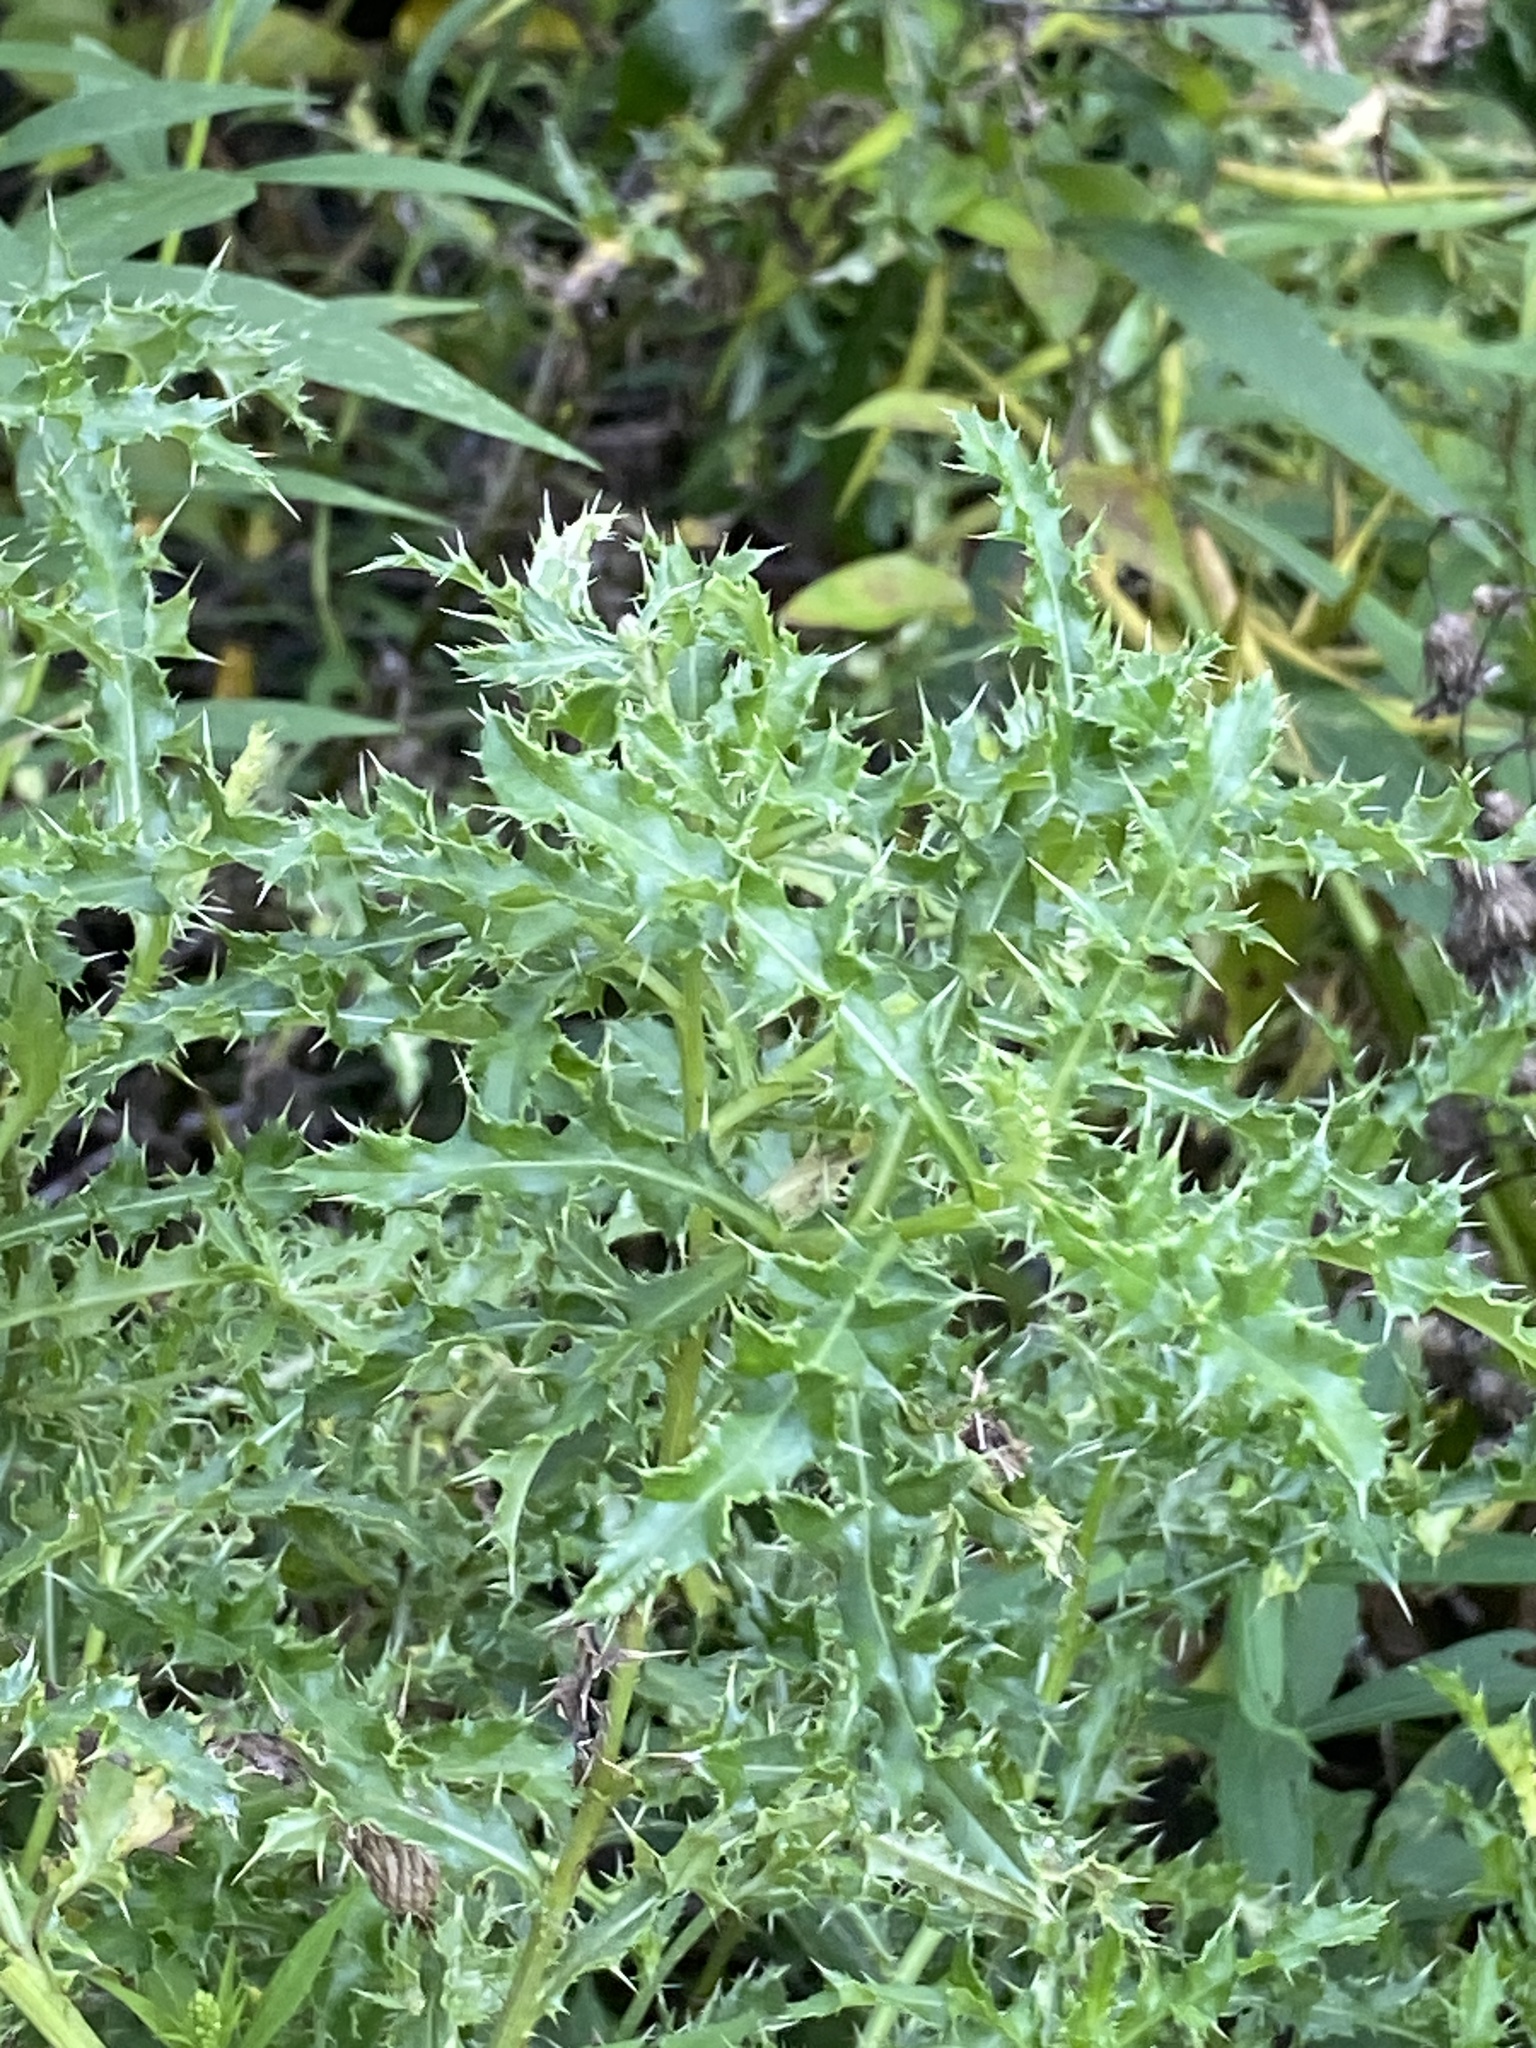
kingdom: Plantae
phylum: Tracheophyta
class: Magnoliopsida
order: Asterales
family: Asteraceae
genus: Cirsium
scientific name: Cirsium arvense
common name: Creeping thistle
